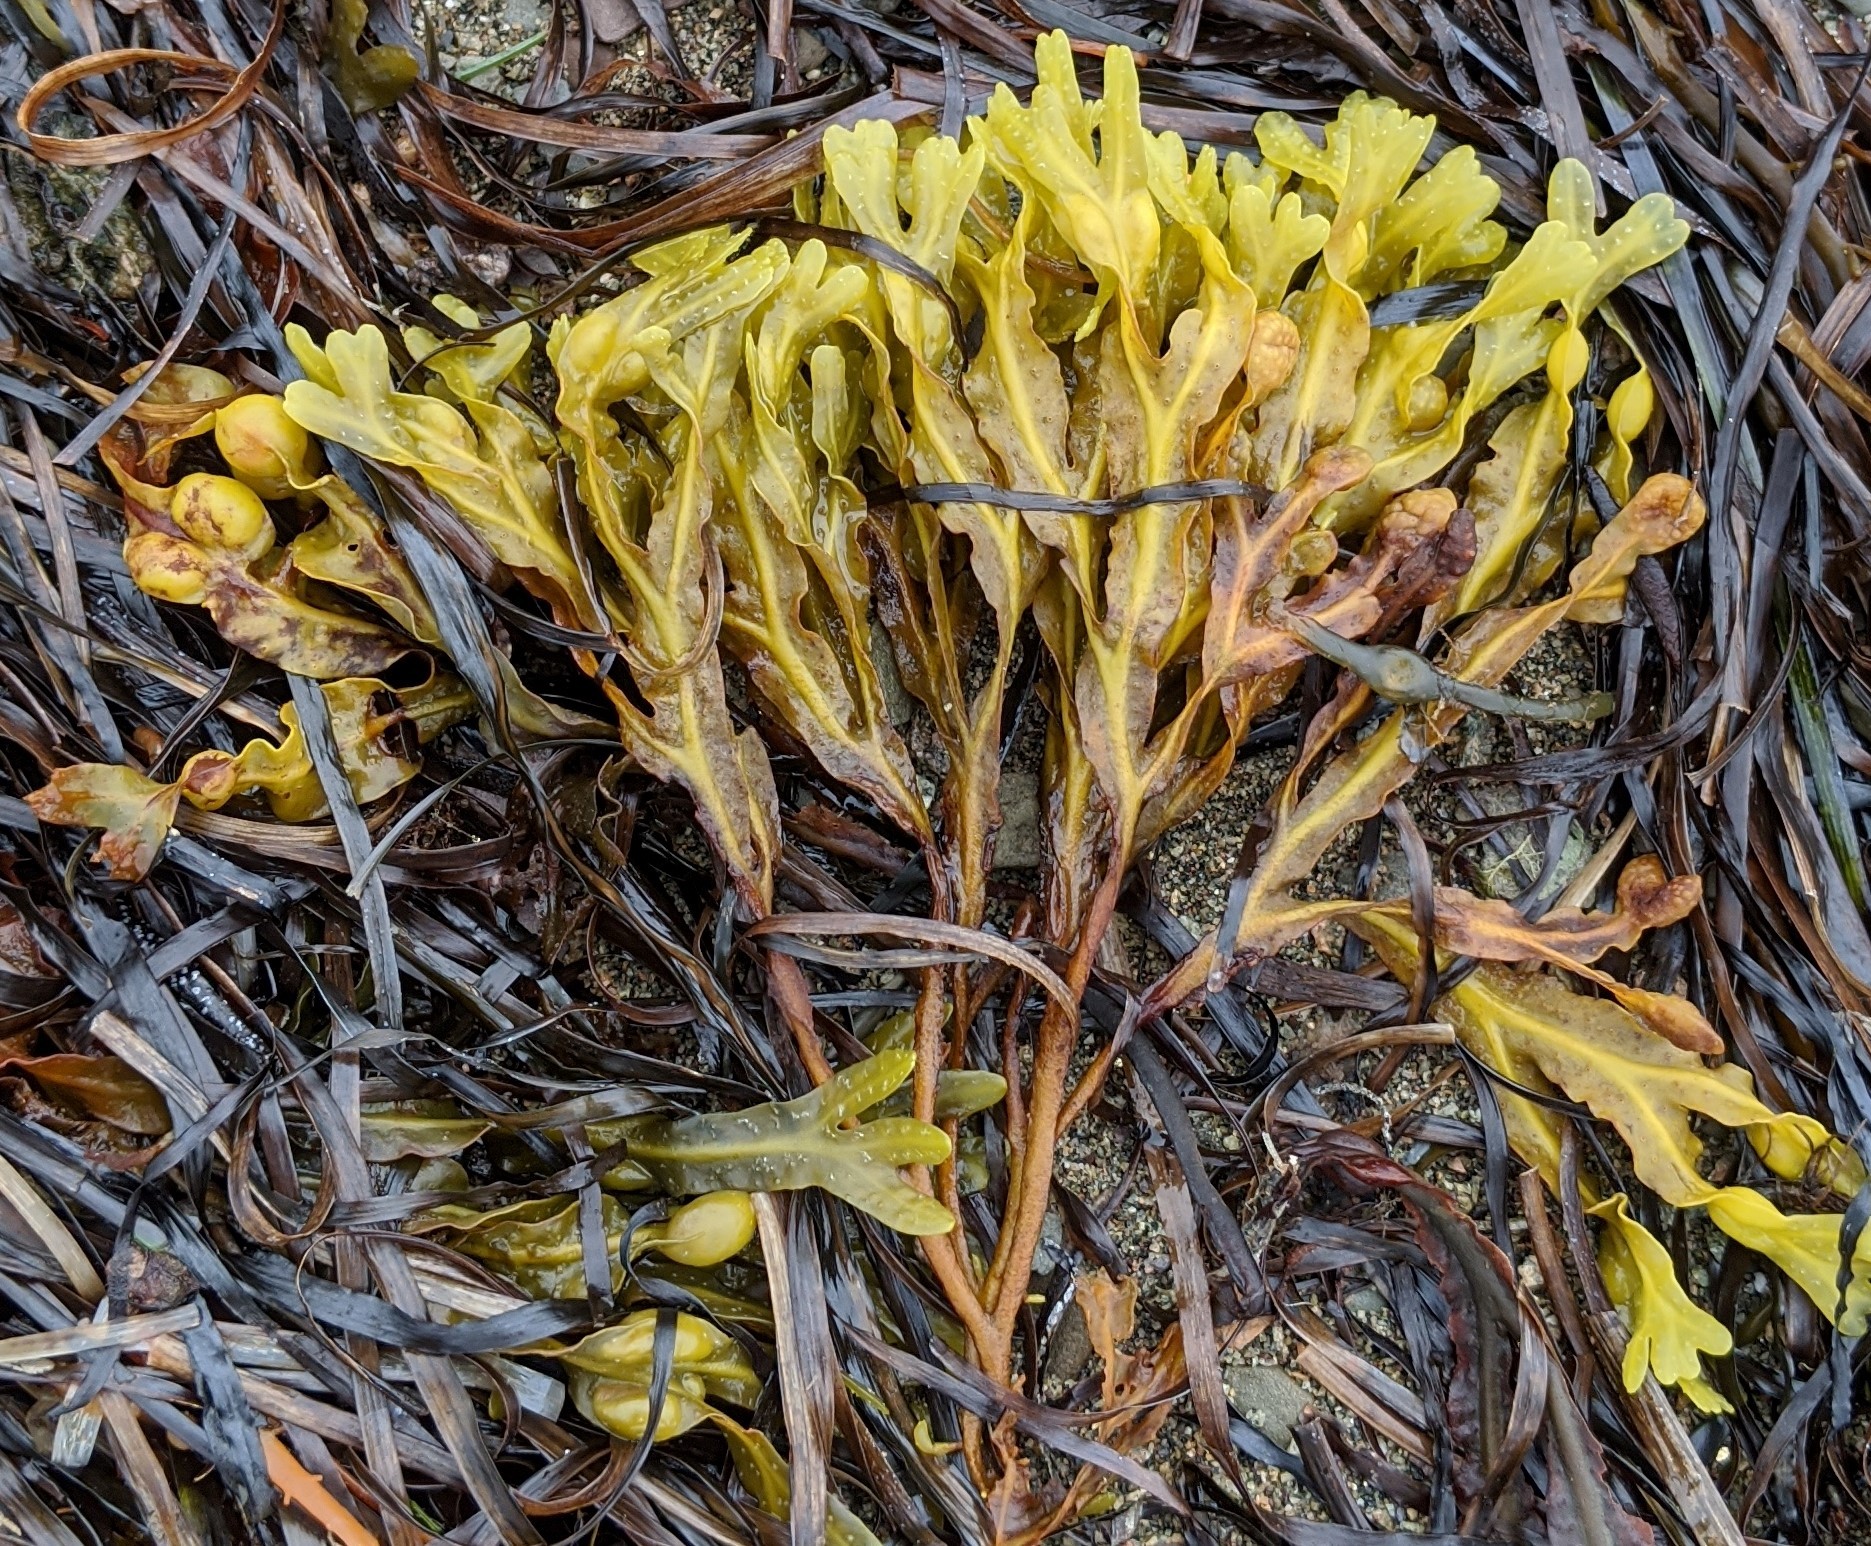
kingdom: Chromista
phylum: Ochrophyta
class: Phaeophyceae
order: Fucales
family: Fucaceae
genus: Fucus
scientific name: Fucus vesiculosus
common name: Bladder wrack
